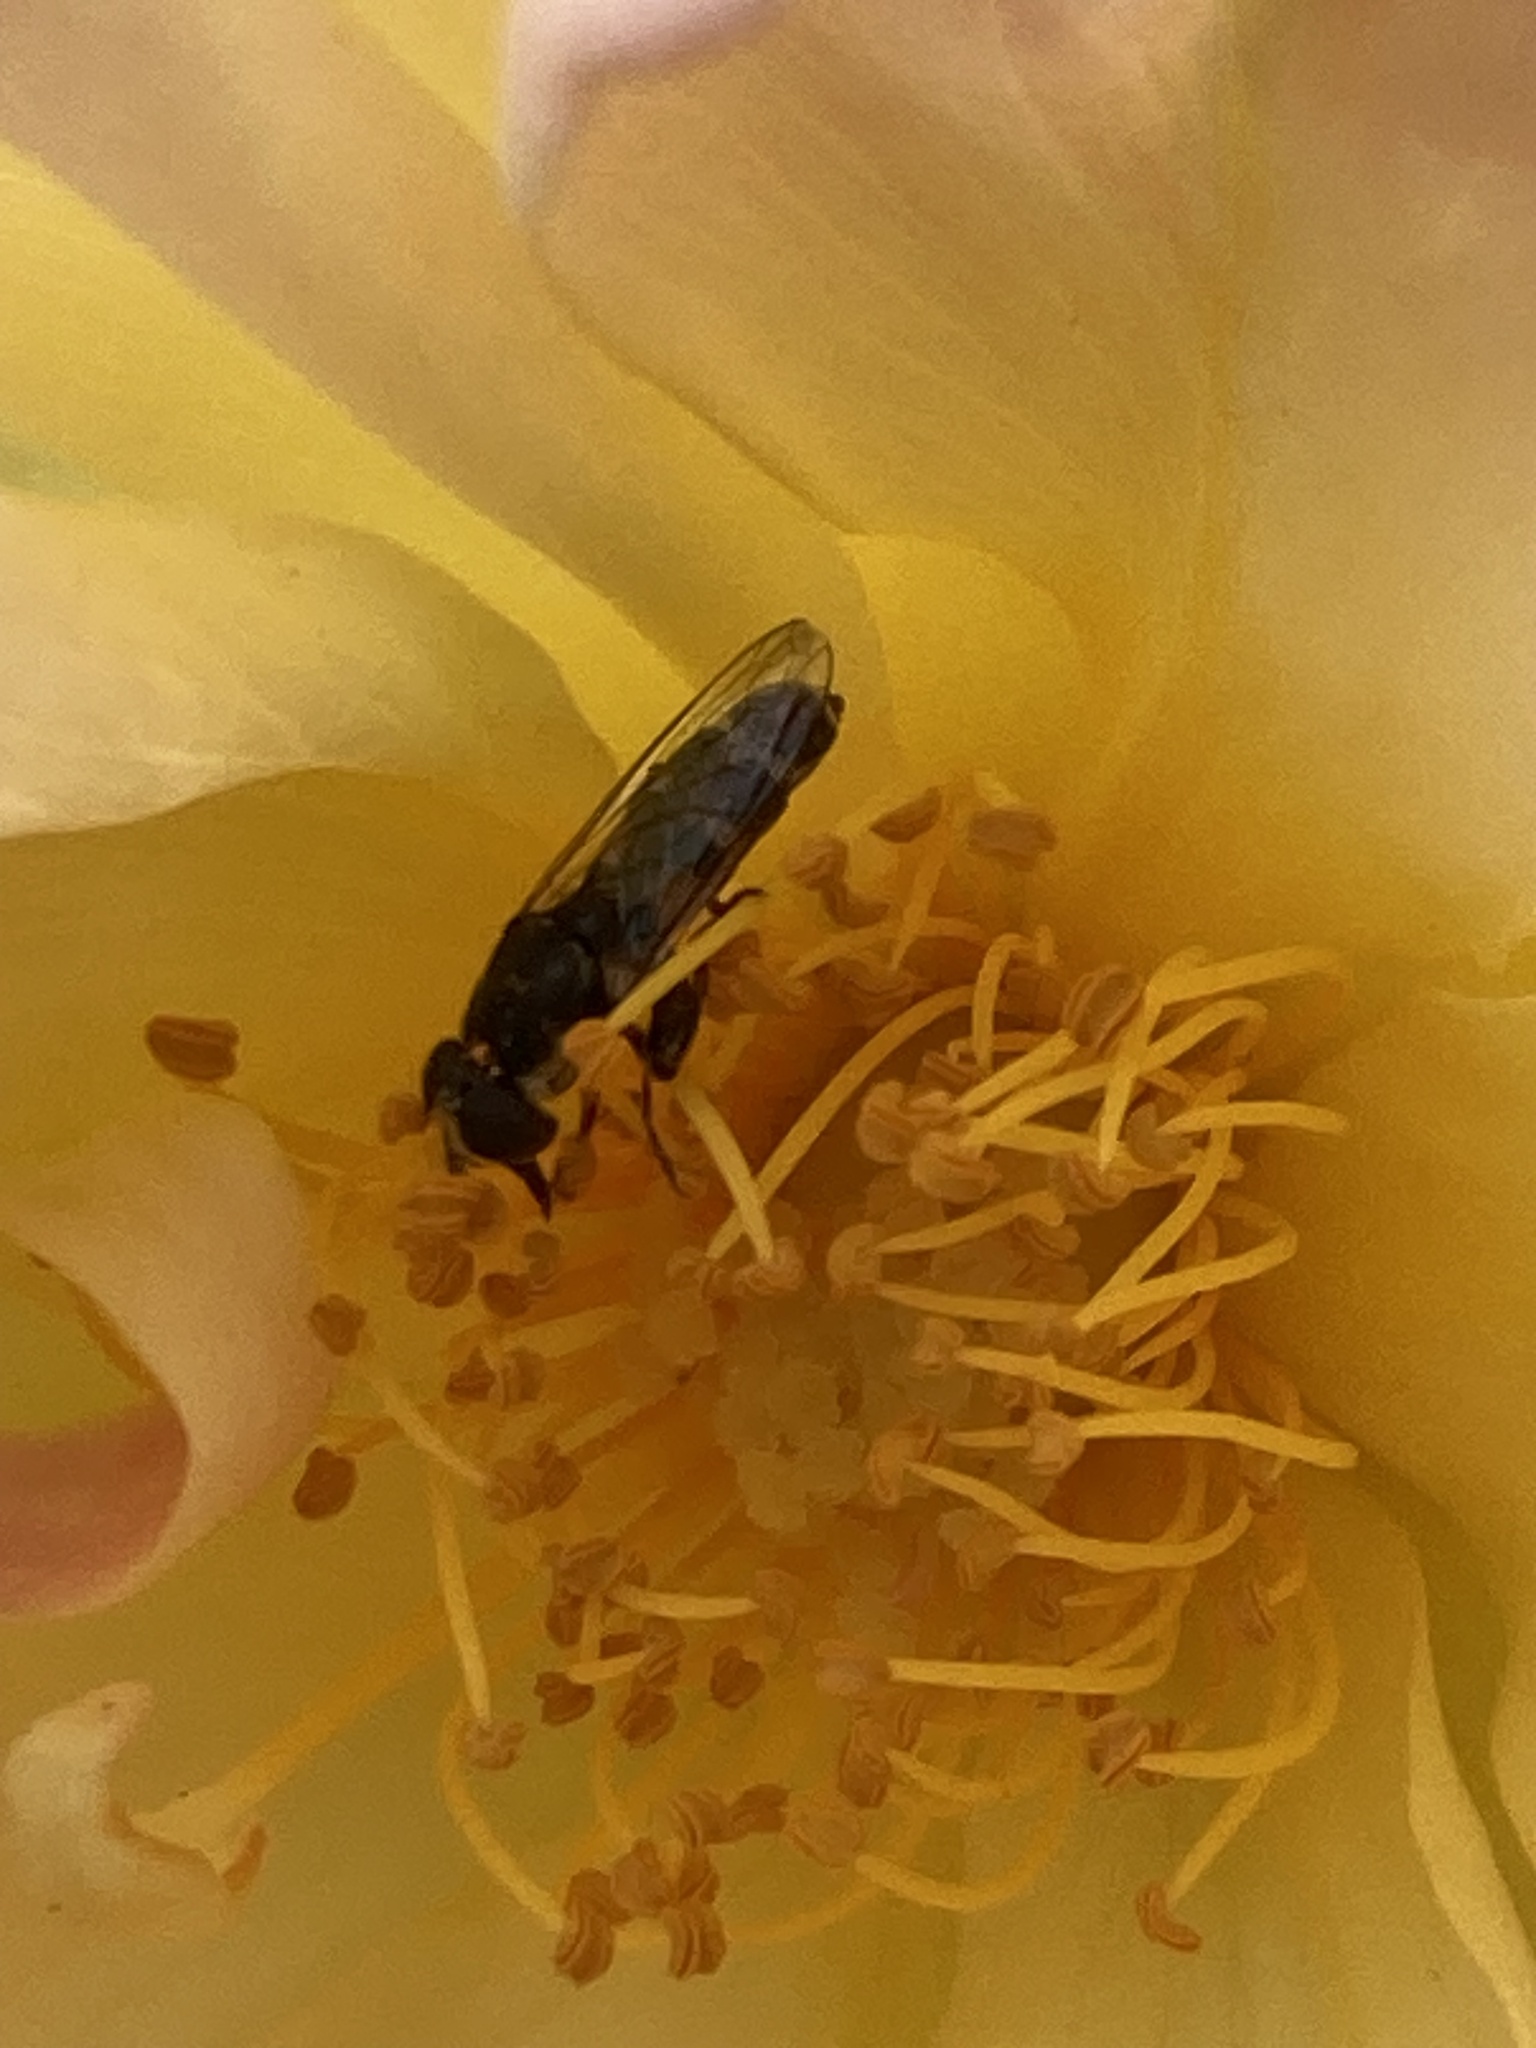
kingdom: Animalia
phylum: Arthropoda
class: Insecta
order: Diptera
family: Syrphidae
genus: Syritta
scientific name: Syritta pipiens
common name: Hover fly
